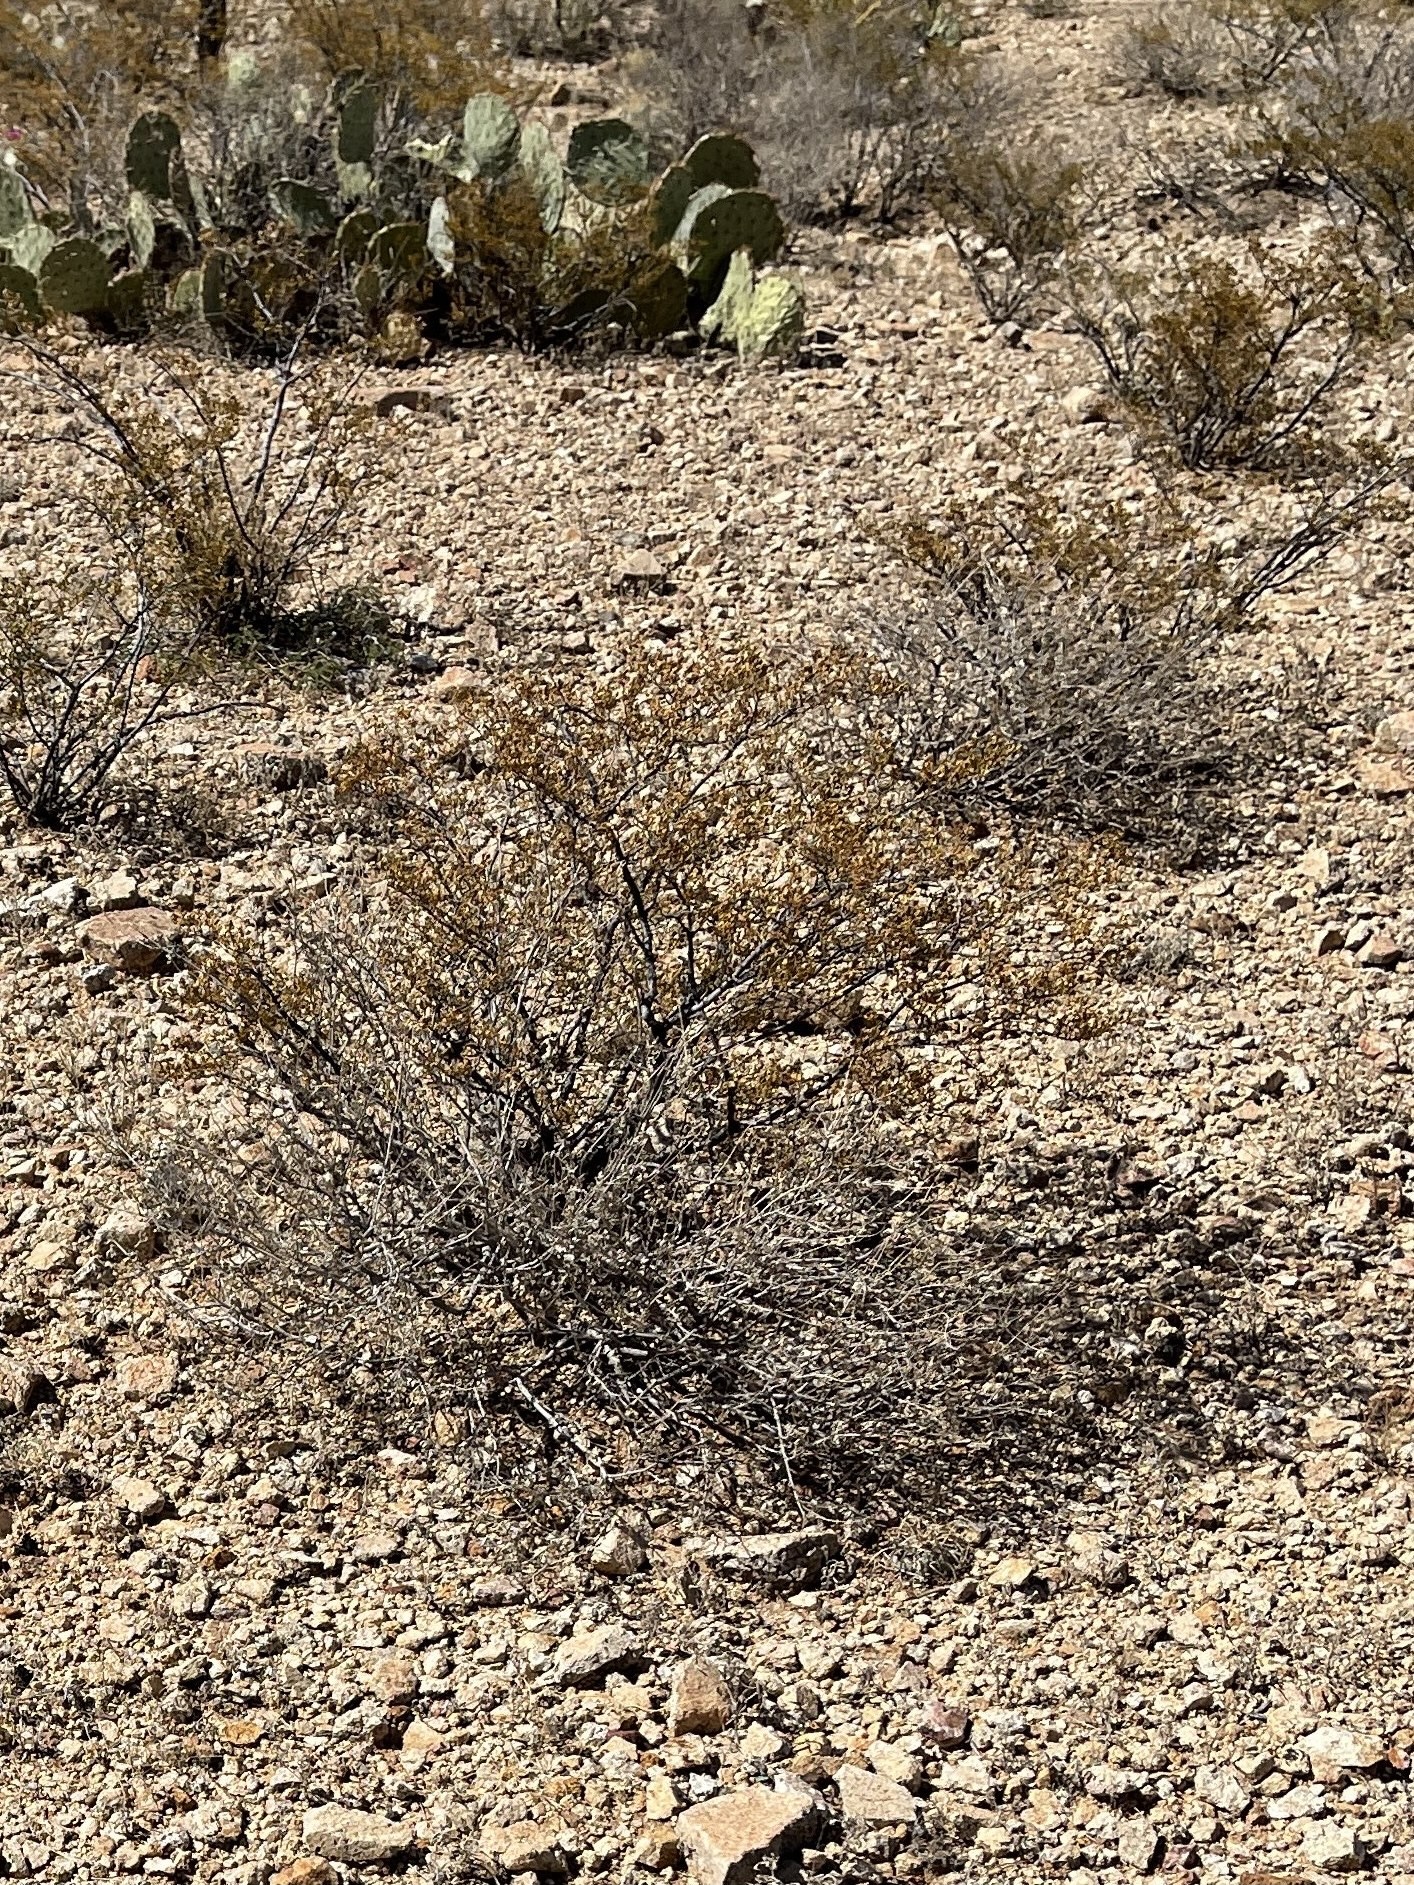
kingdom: Plantae
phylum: Tracheophyta
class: Magnoliopsida
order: Zygophyllales
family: Zygophyllaceae
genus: Larrea
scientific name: Larrea tridentata
